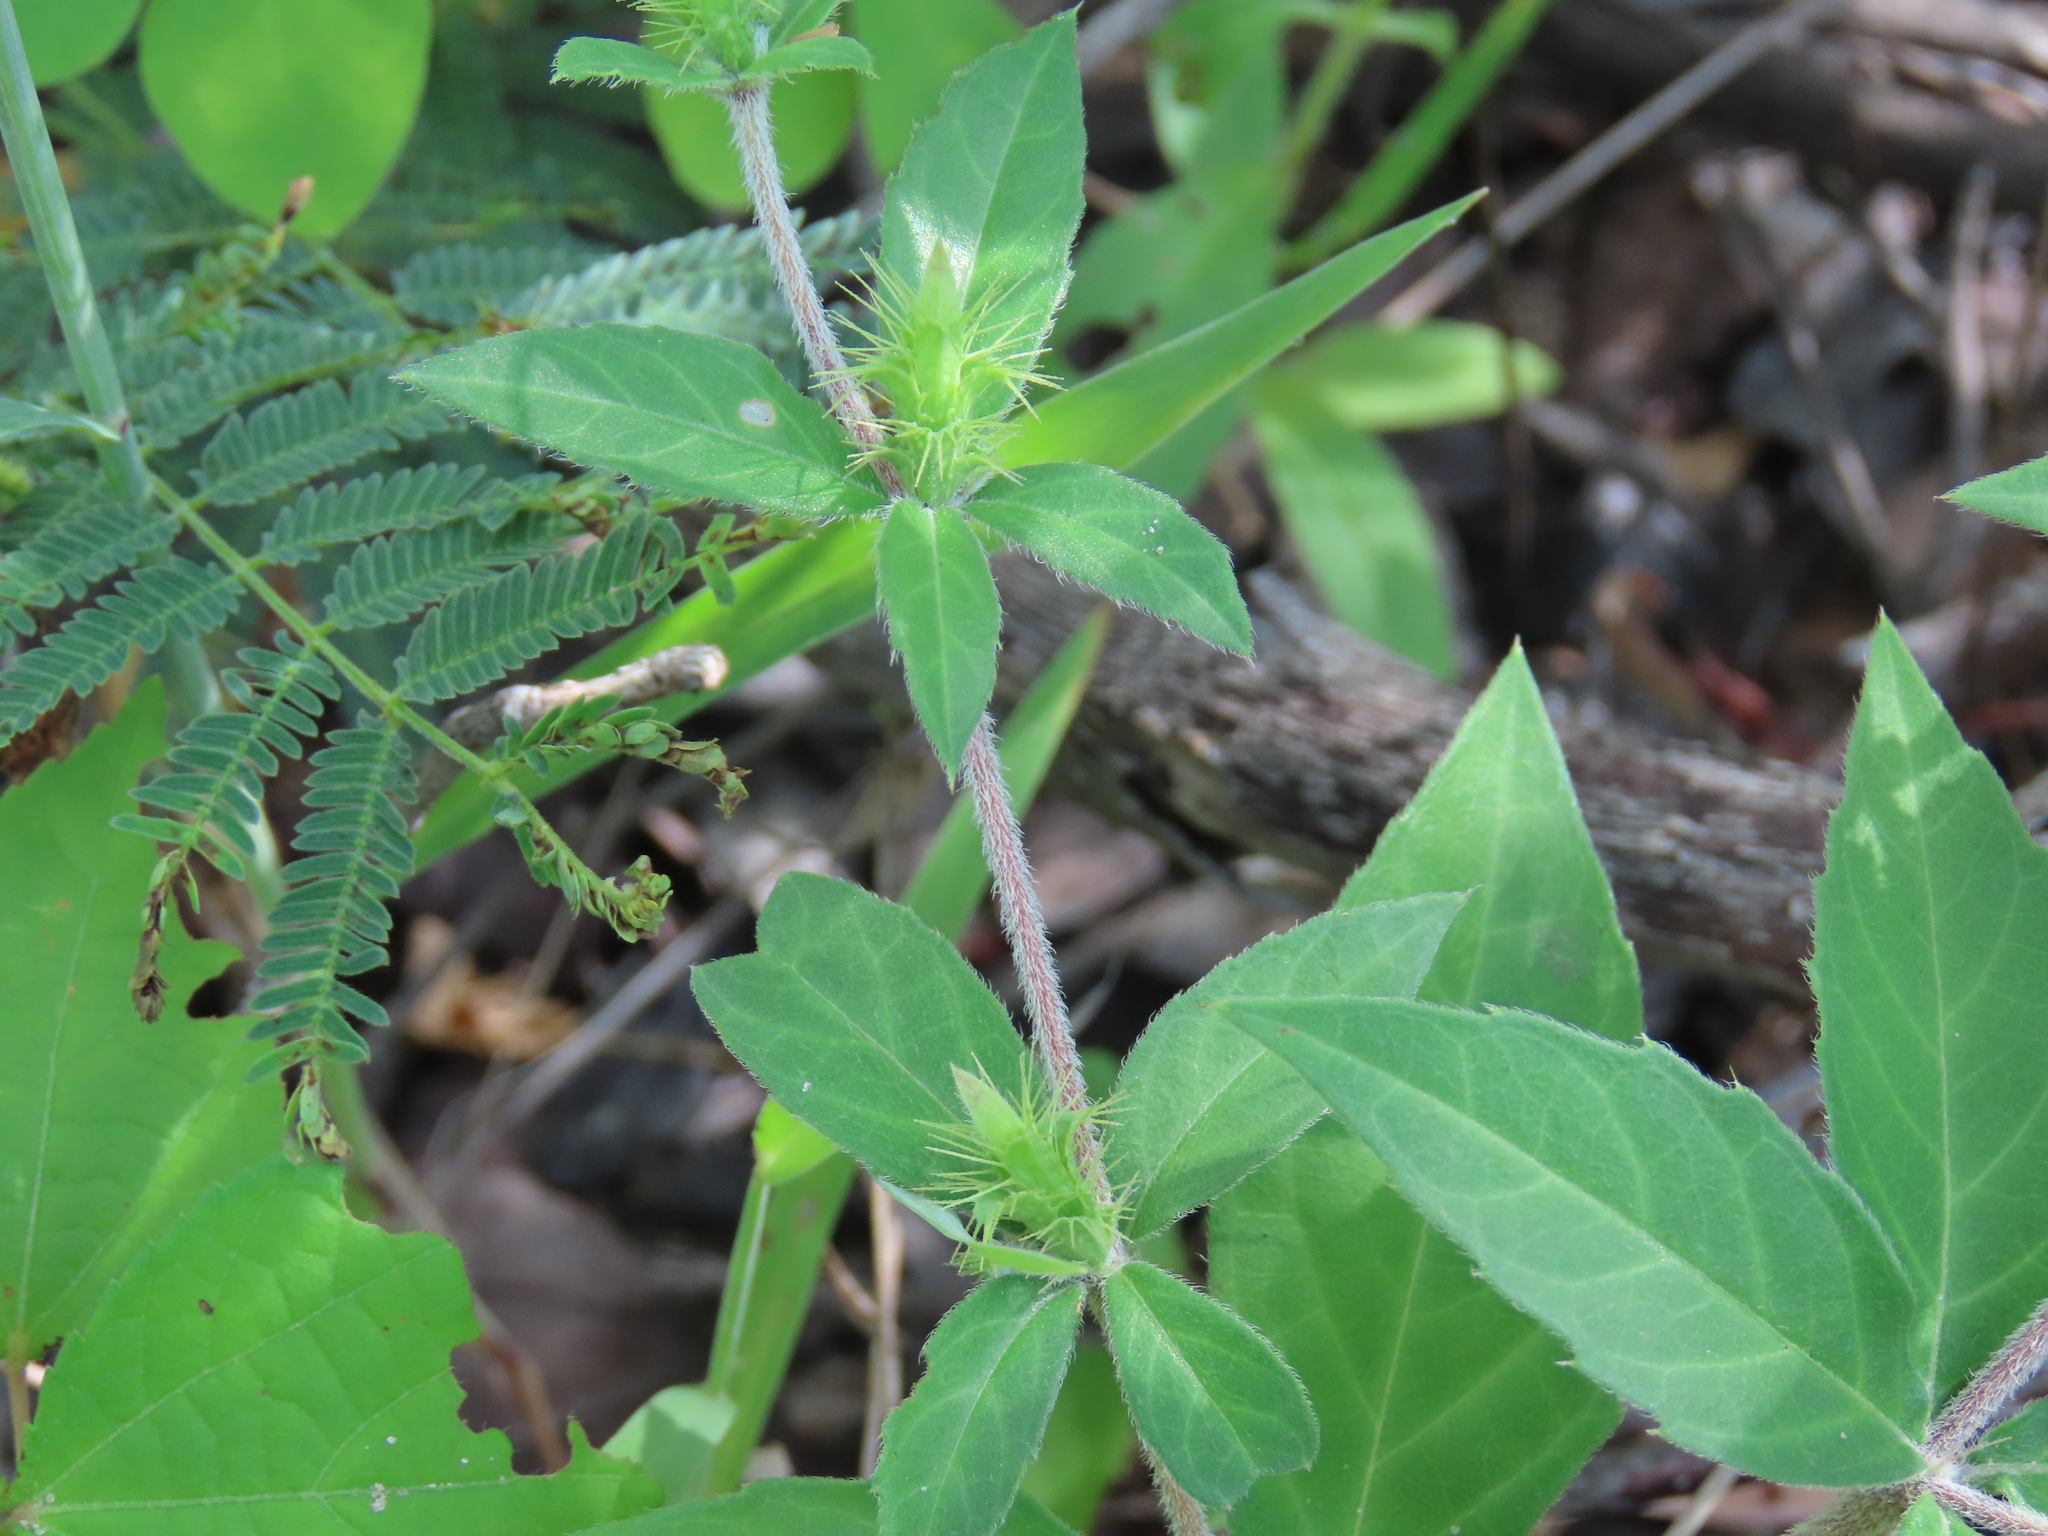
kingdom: Plantae
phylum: Tracheophyta
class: Magnoliopsida
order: Lamiales
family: Acanthaceae
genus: Blepharis
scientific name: Blepharis maderaspatensis
